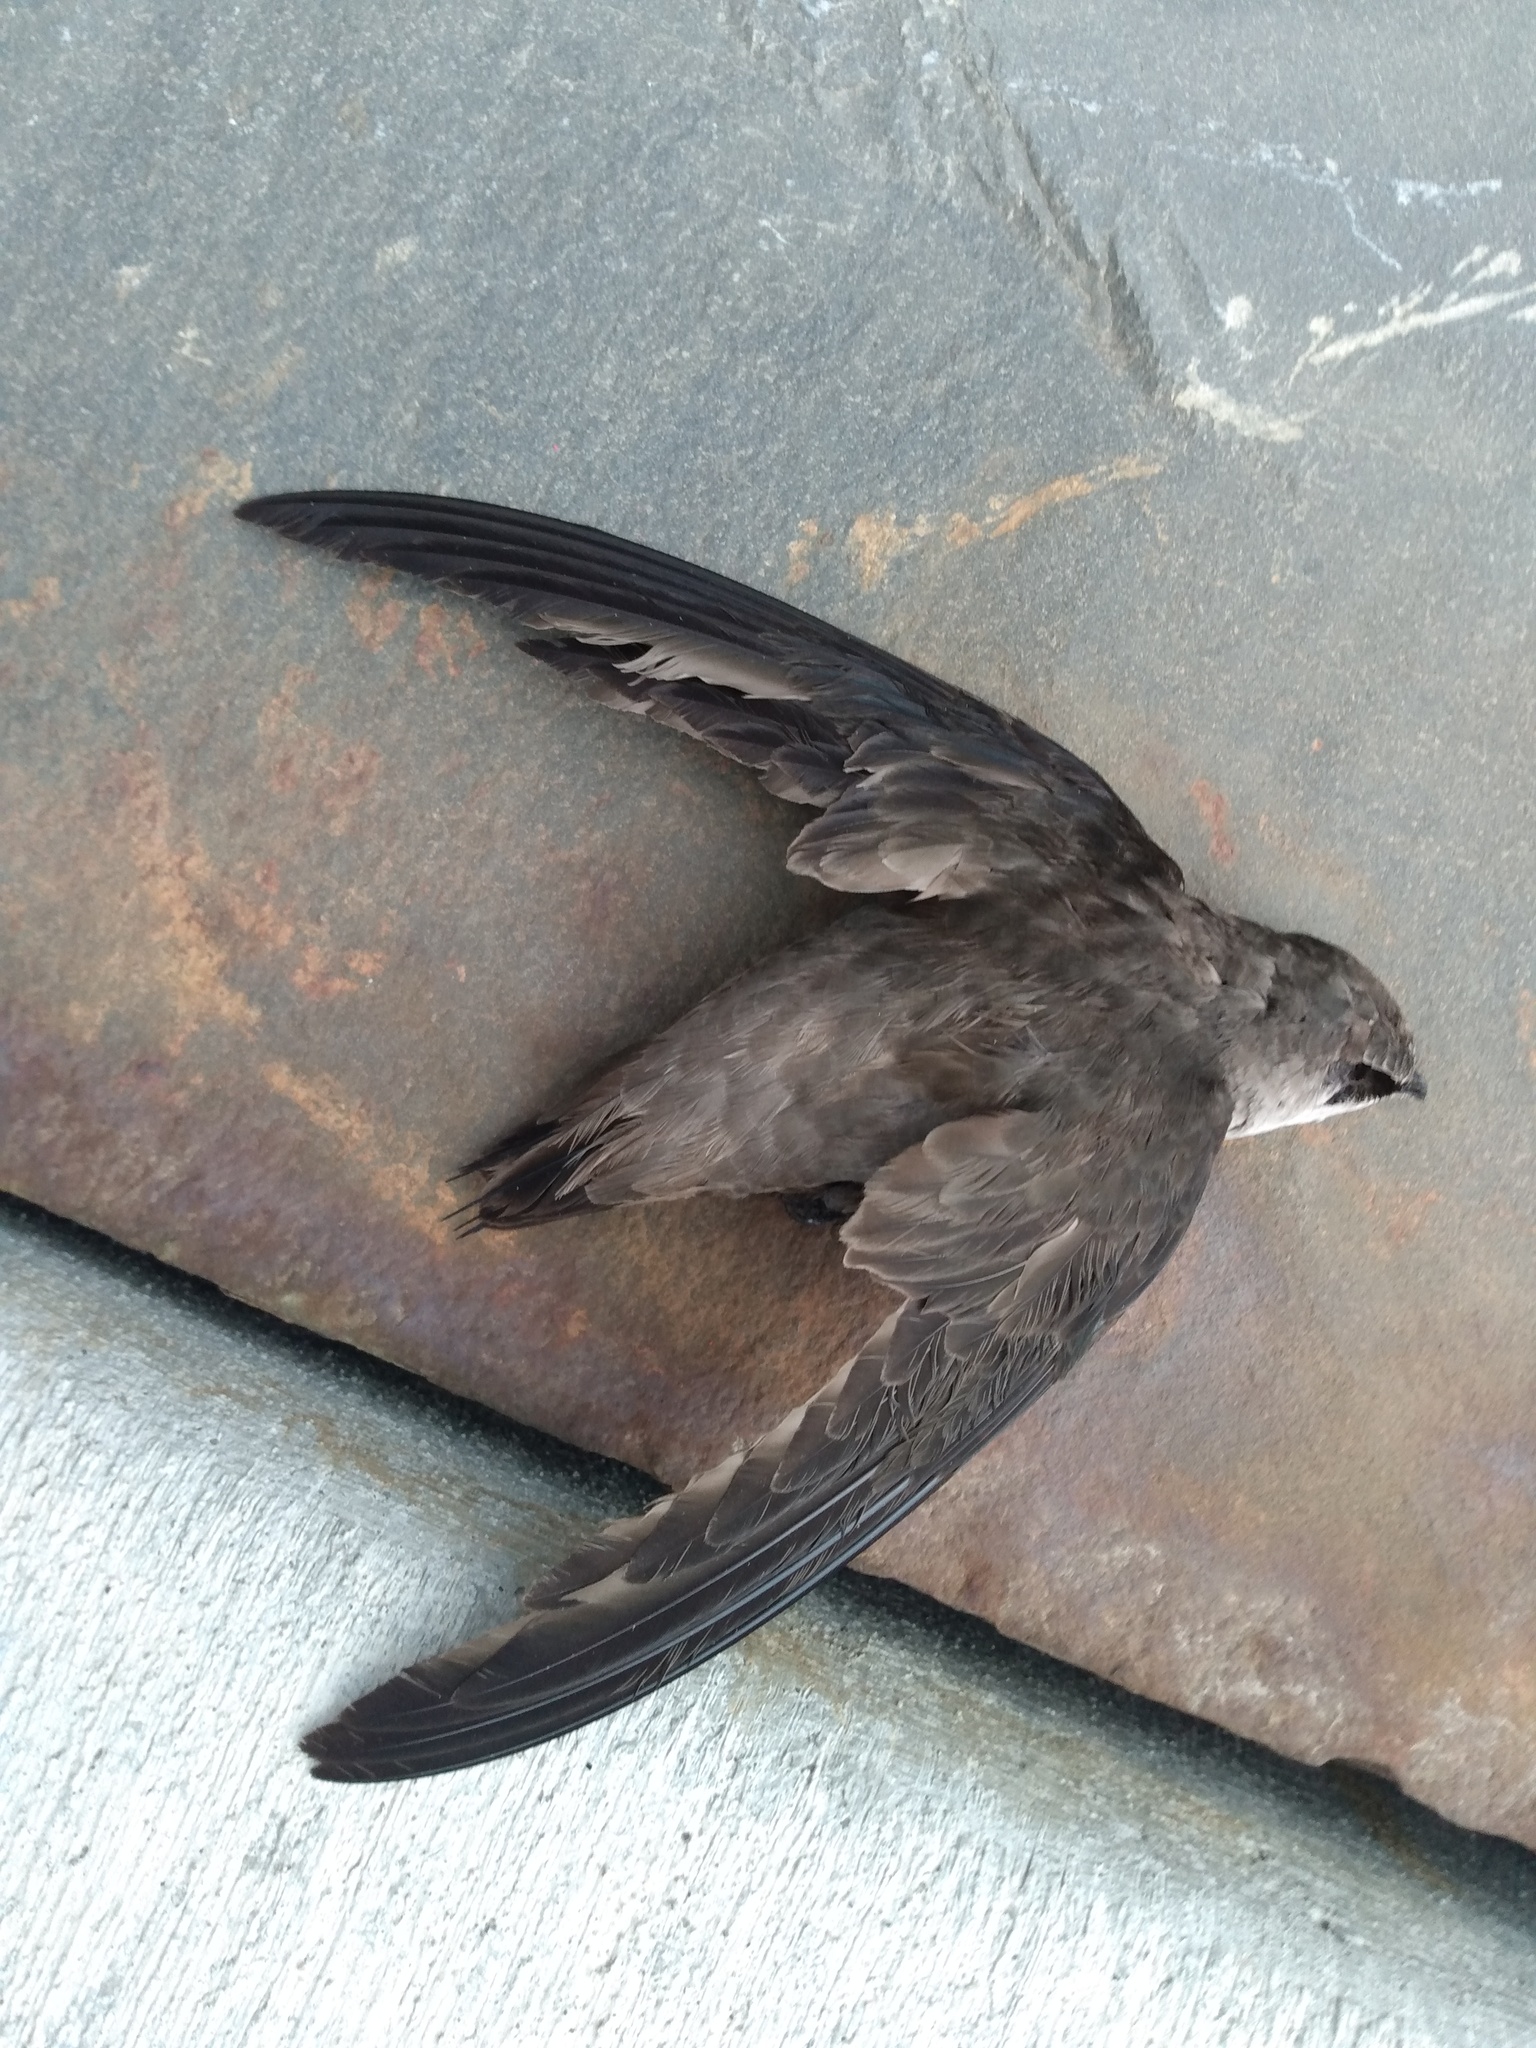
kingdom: Animalia
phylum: Chordata
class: Aves
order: Apodiformes
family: Apodidae
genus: Chaetura
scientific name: Chaetura vauxi
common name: Vaux's swift
